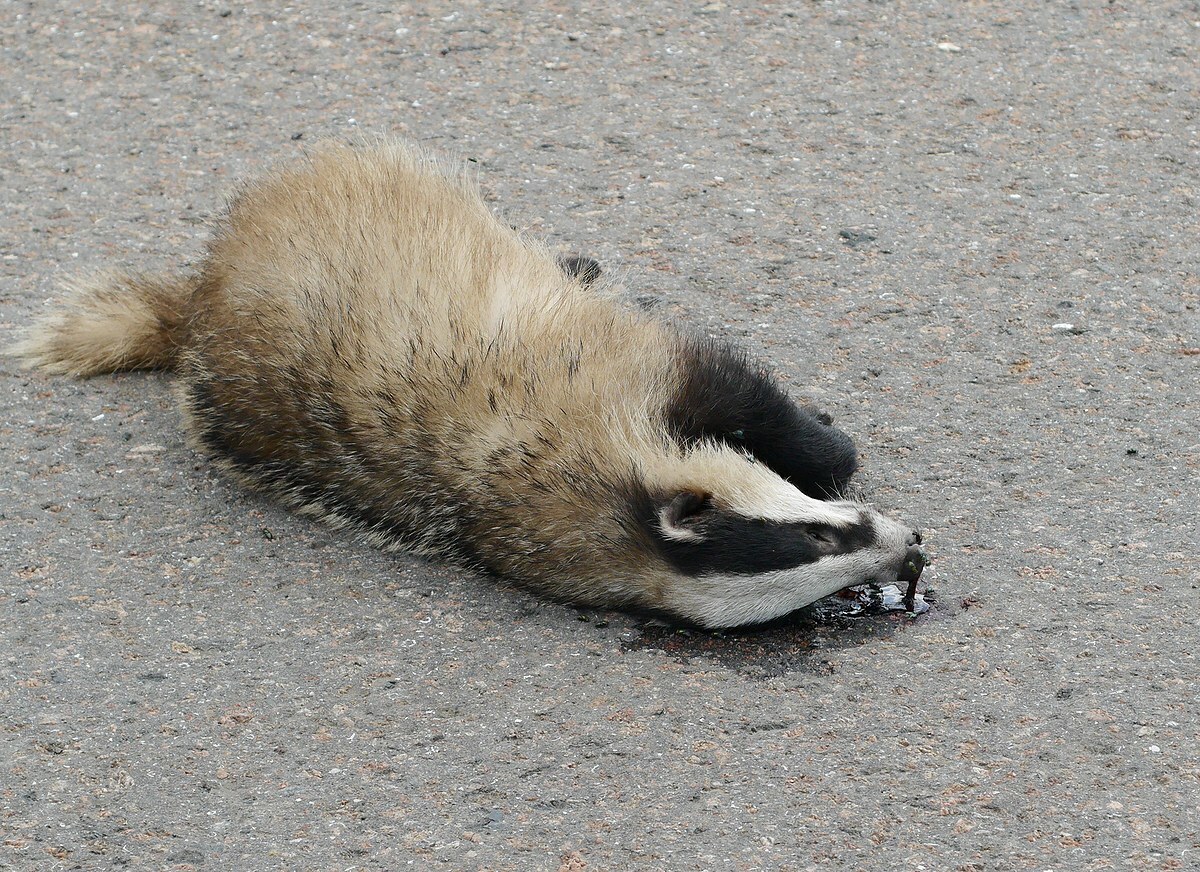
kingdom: Animalia
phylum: Chordata
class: Mammalia
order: Carnivora
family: Mustelidae
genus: Meles
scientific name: Meles meles
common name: Eurasian badger
